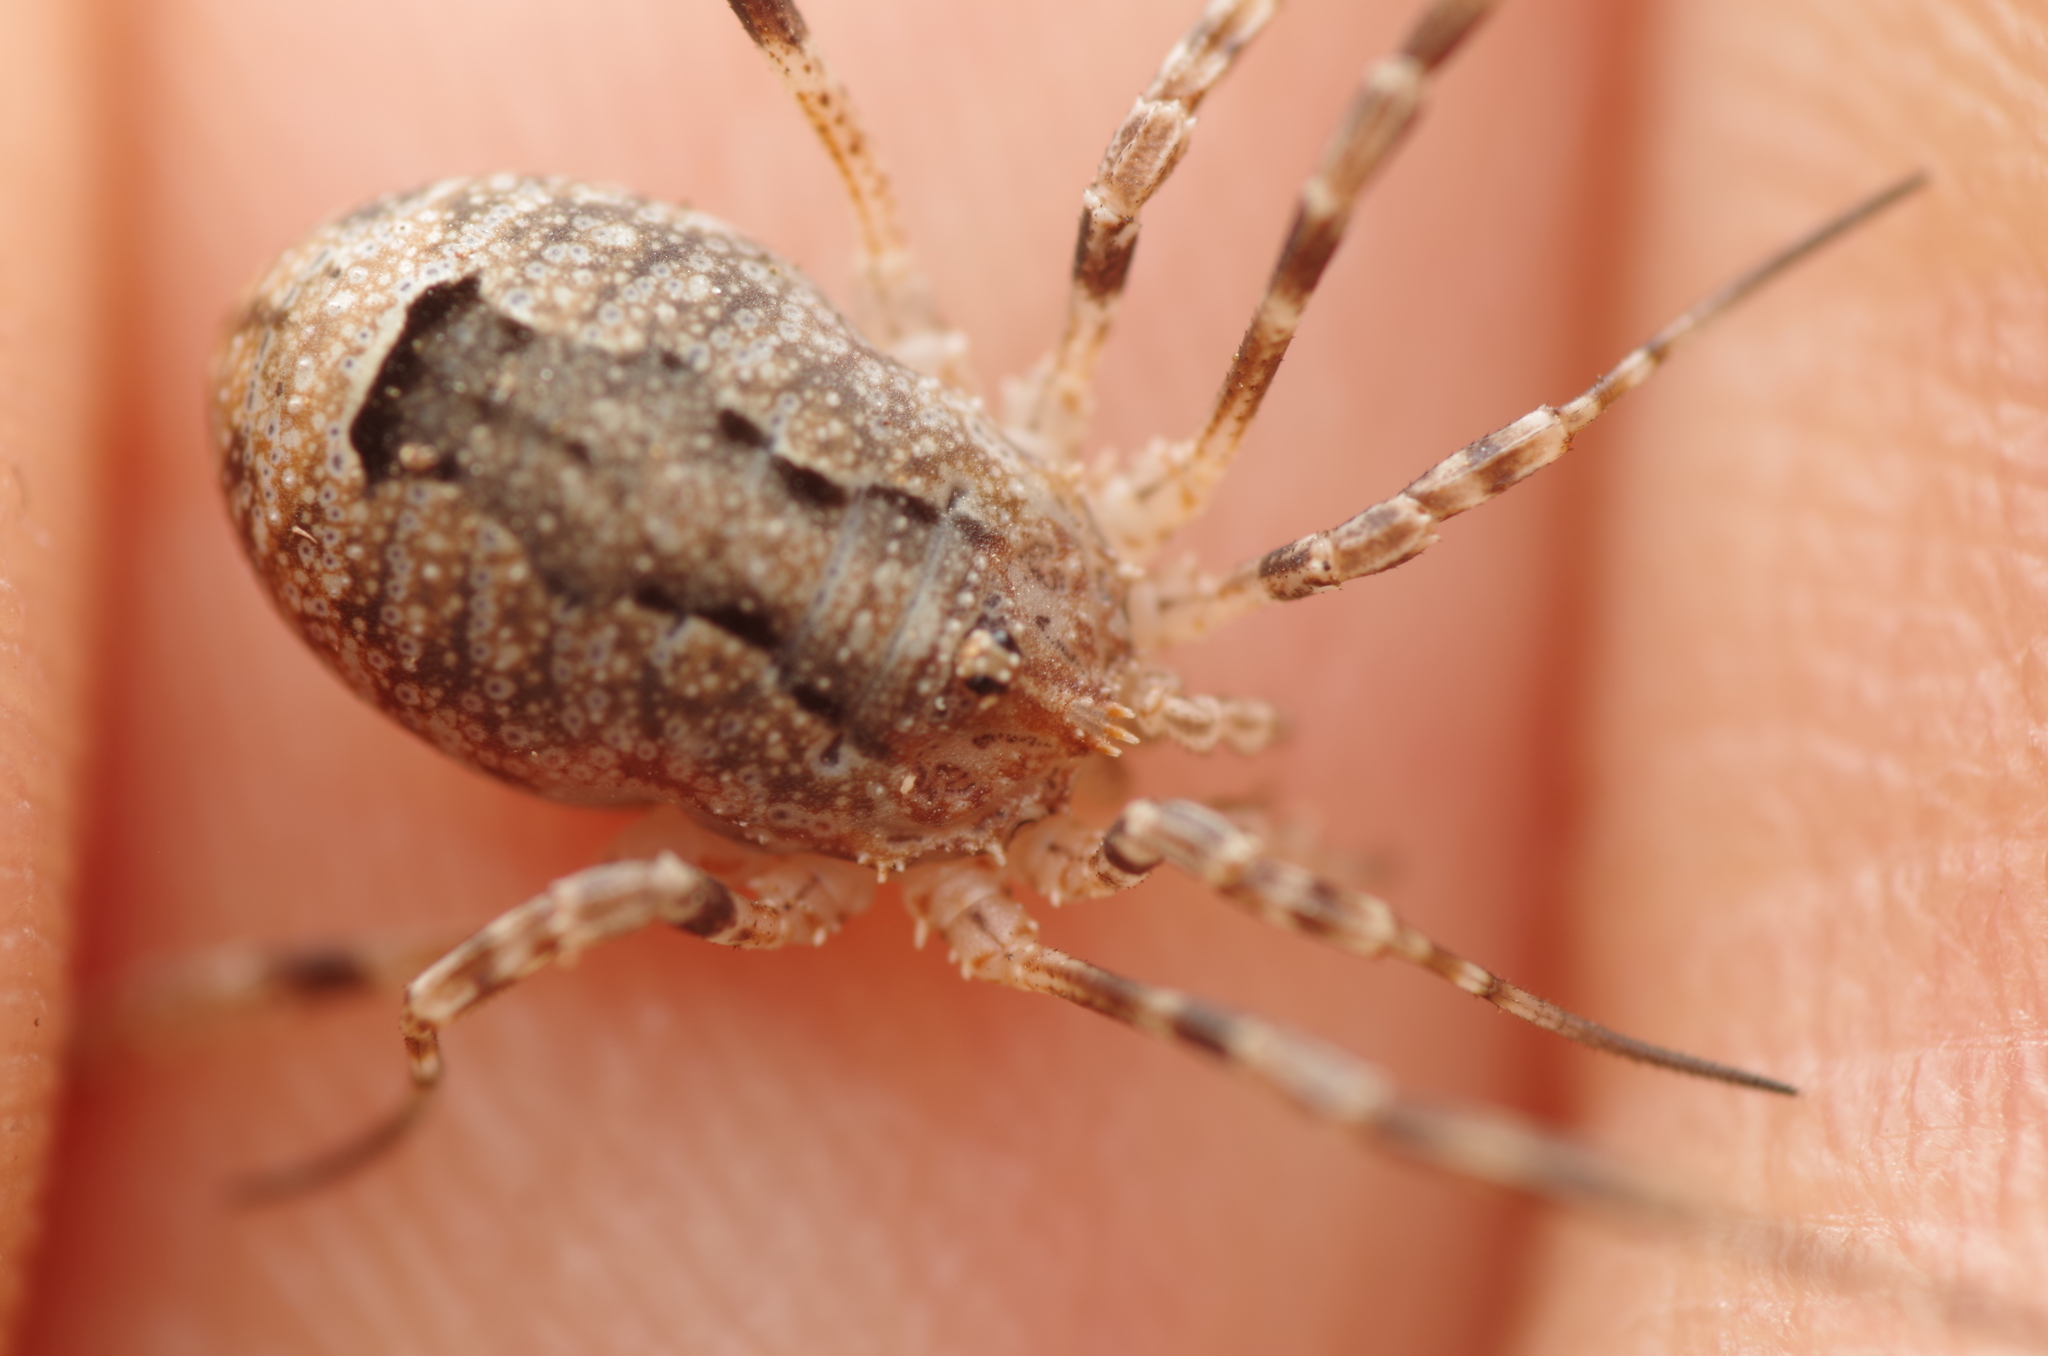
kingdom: Animalia
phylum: Arthropoda
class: Arachnida
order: Opiliones
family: Phalangiidae
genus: Odiellus
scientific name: Odiellus spinosus
